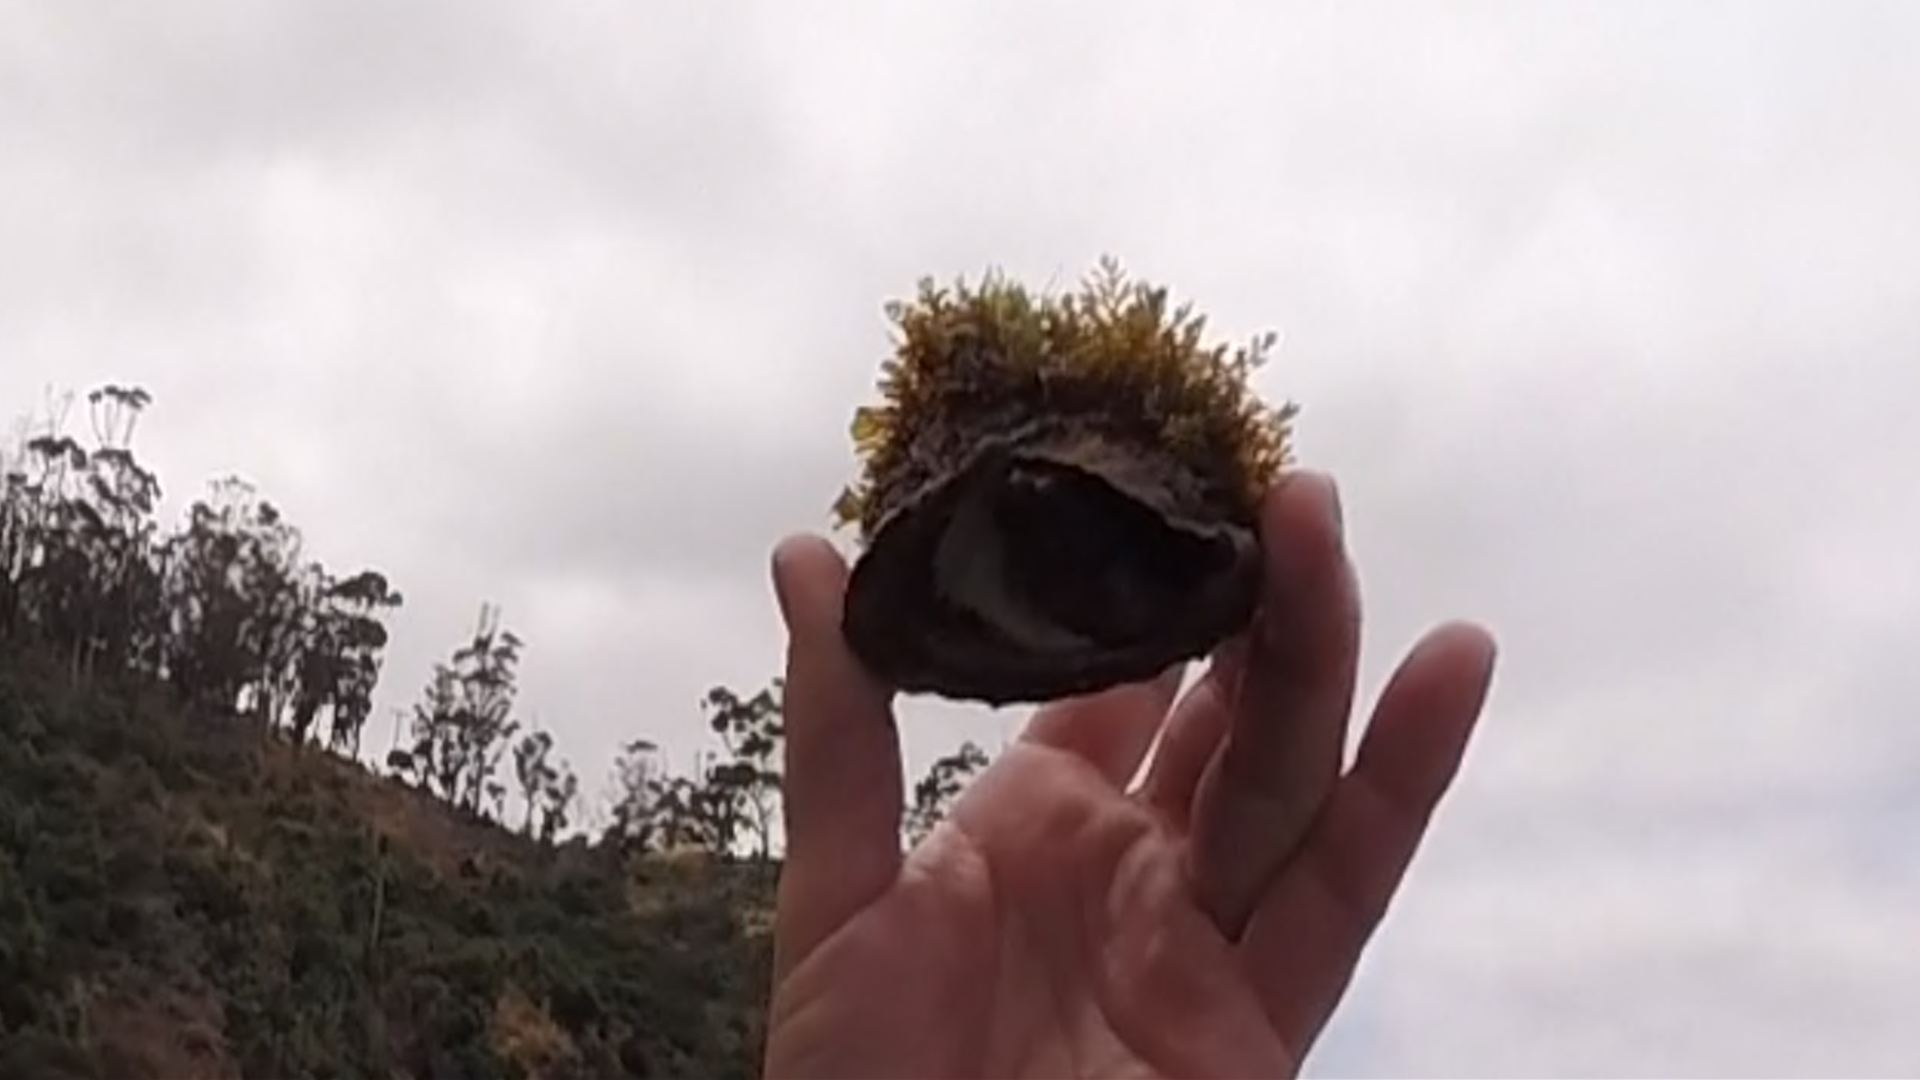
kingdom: Animalia
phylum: Mollusca
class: Gastropoda
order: Trochida
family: Turbinidae
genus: Megastraea
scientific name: Megastraea undosa
